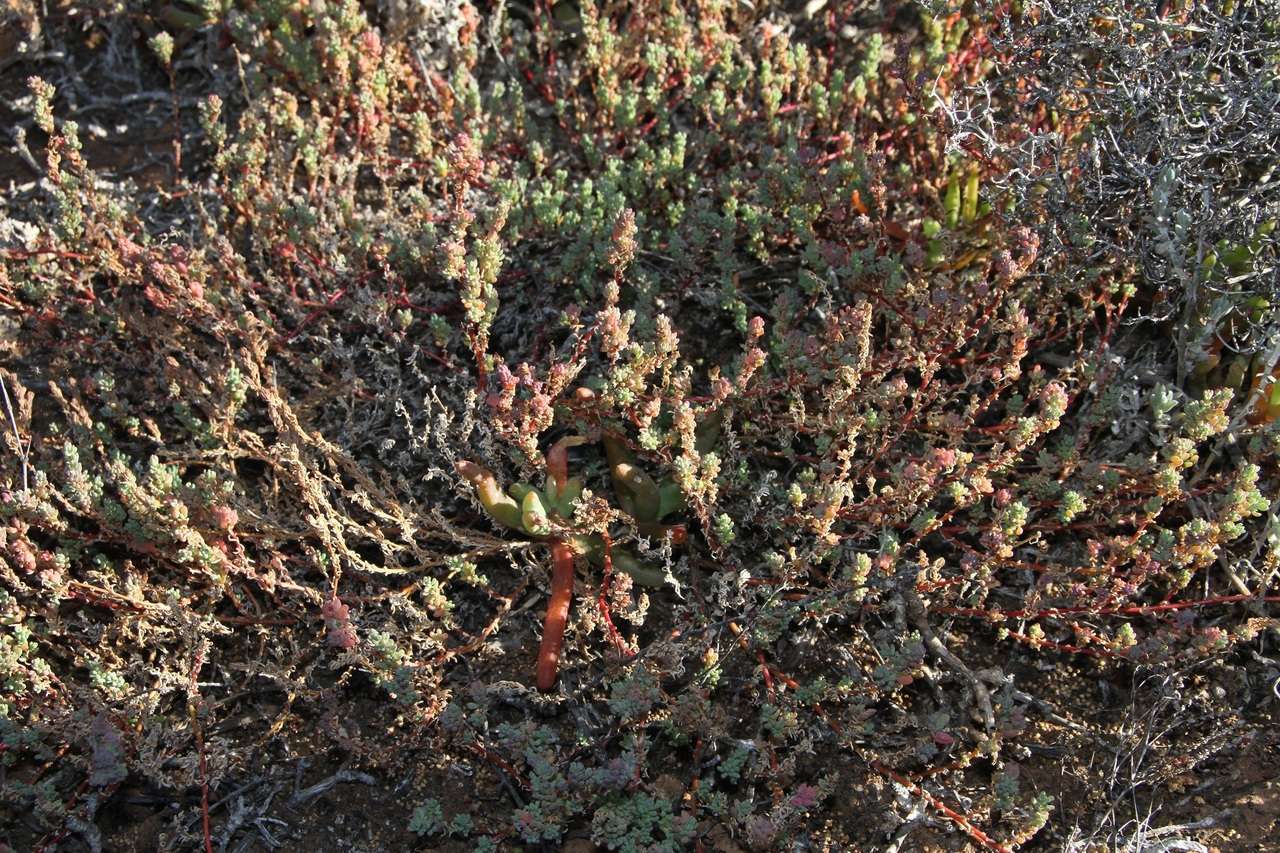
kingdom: Plantae
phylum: Tracheophyta
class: Magnoliopsida
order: Caryophyllales
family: Amaranthaceae
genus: Osteocarpum
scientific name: Osteocarpum acropterum
